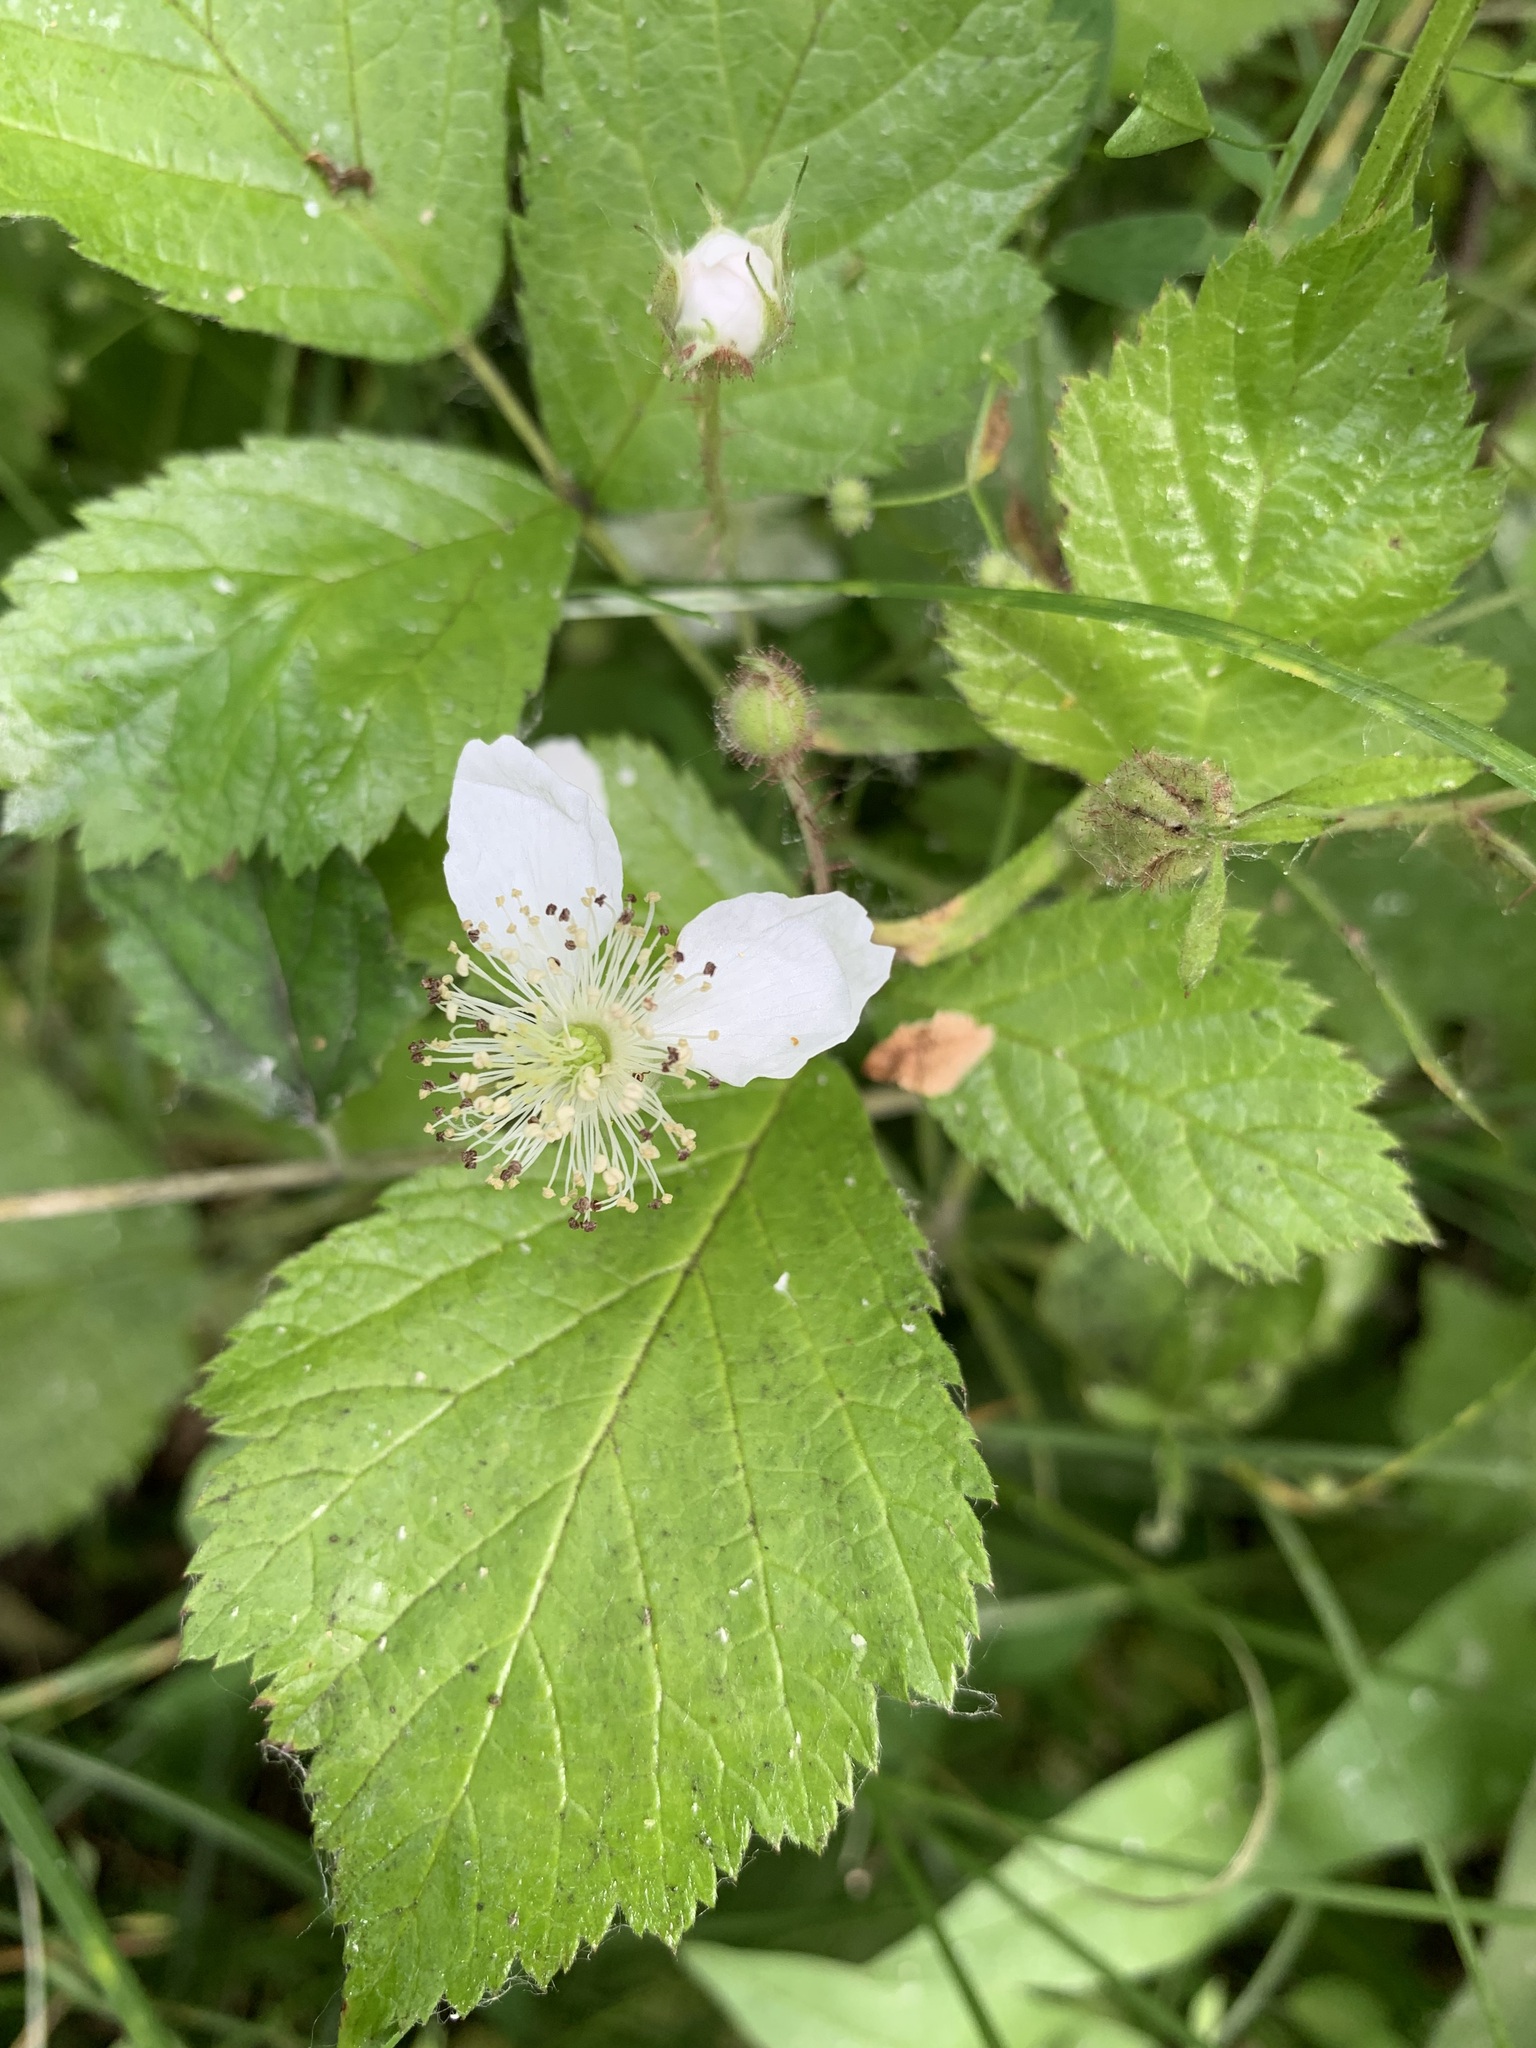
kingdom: Plantae
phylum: Tracheophyta
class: Magnoliopsida
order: Rosales
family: Rosaceae
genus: Rubus
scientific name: Rubus caesius
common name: Dewberry
